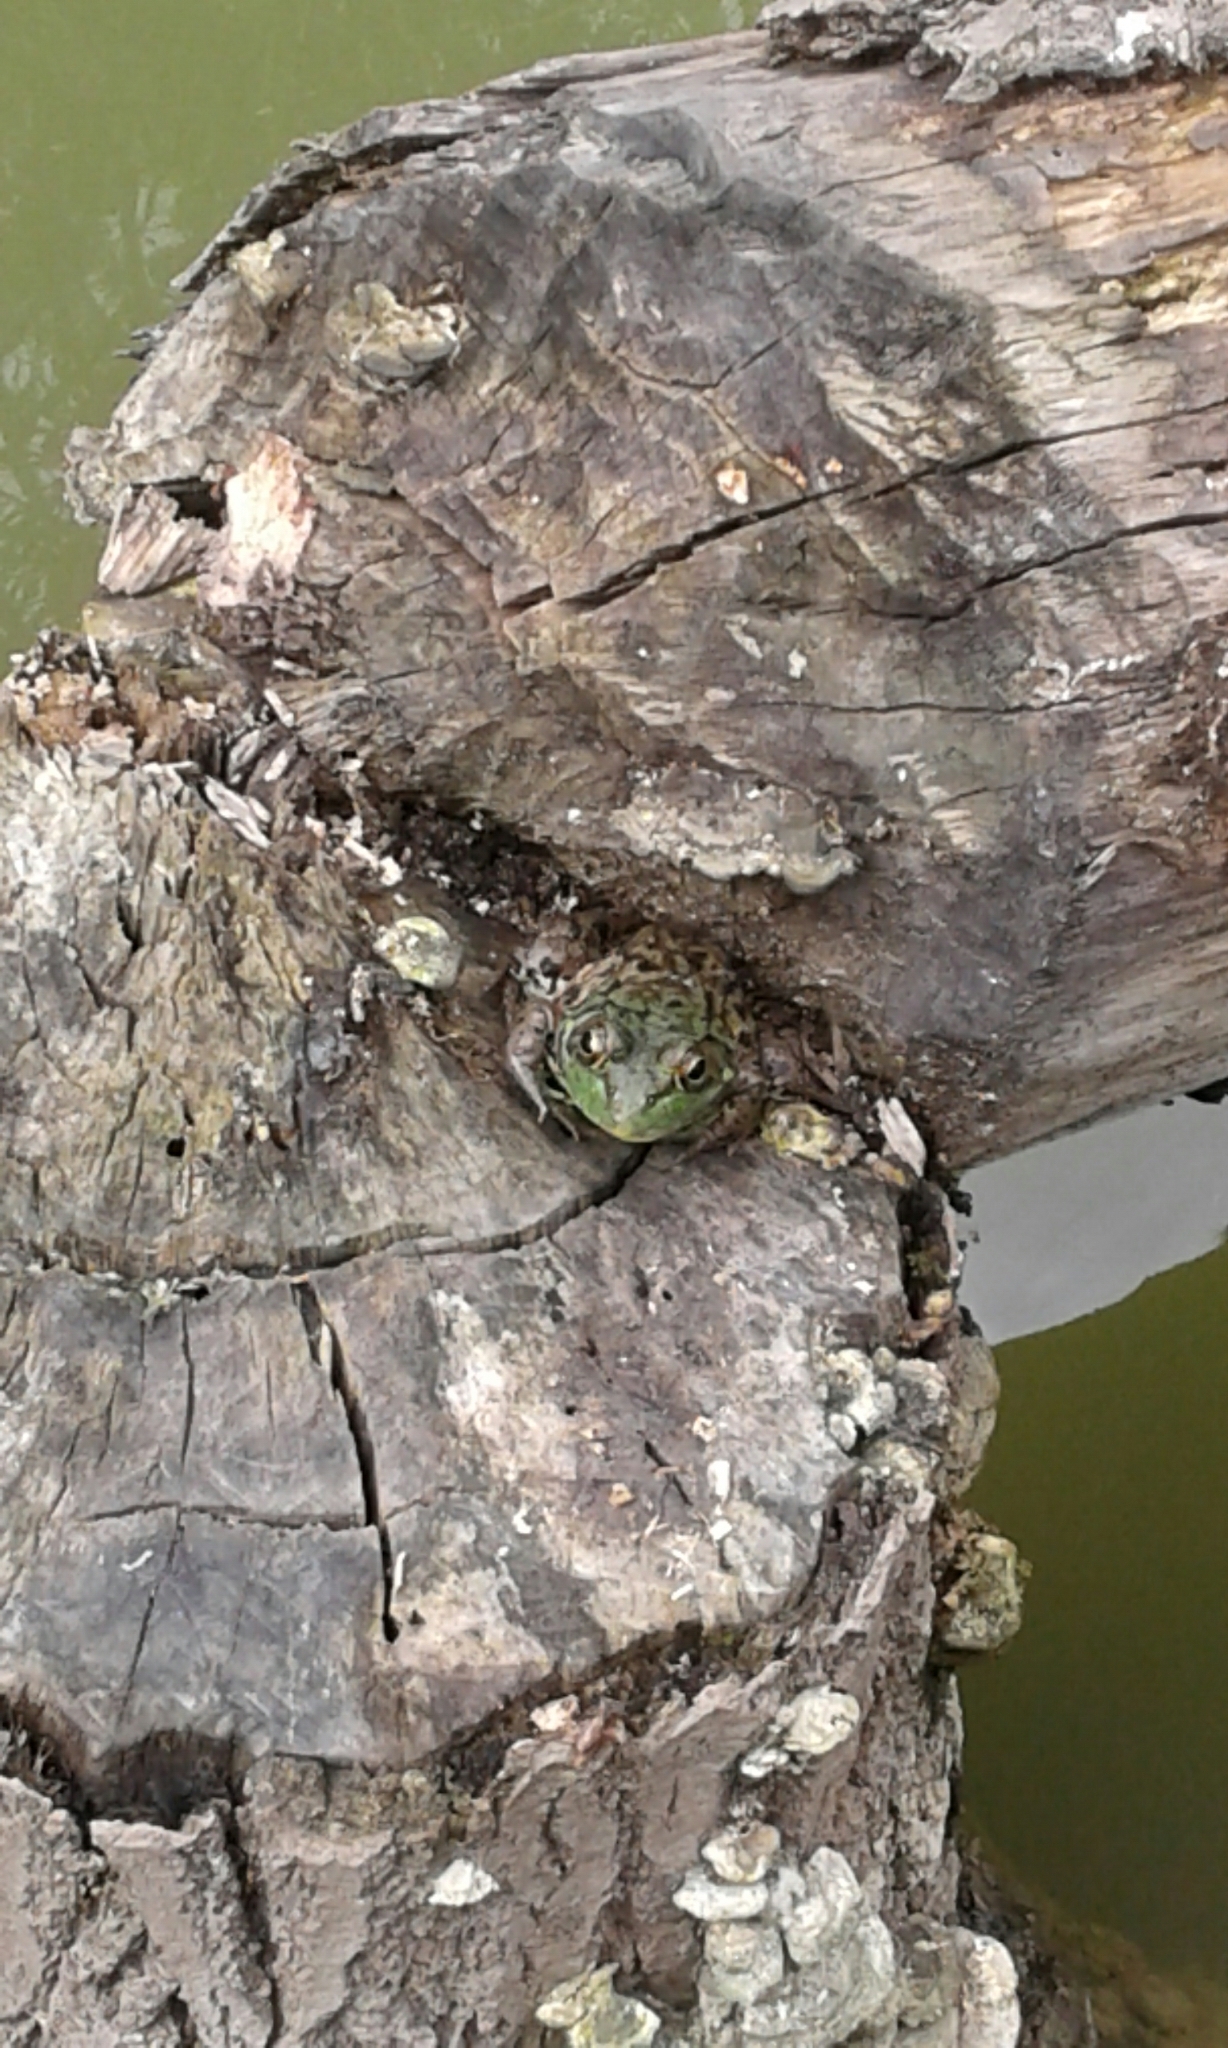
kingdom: Animalia
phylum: Chordata
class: Amphibia
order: Anura
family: Ranidae
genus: Lithobates
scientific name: Lithobates clamitans
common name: Green frog
